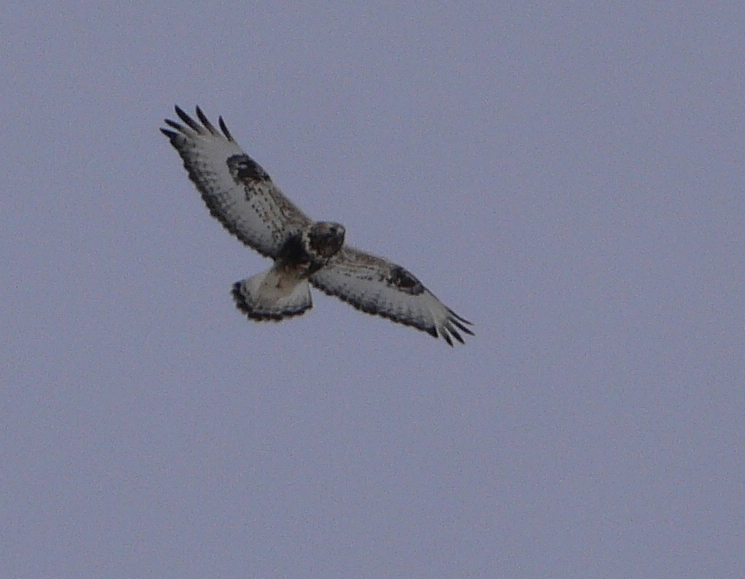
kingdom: Animalia
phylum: Chordata
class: Aves
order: Accipitriformes
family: Accipitridae
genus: Buteo
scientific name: Buteo lagopus
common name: Rough-legged buzzard
